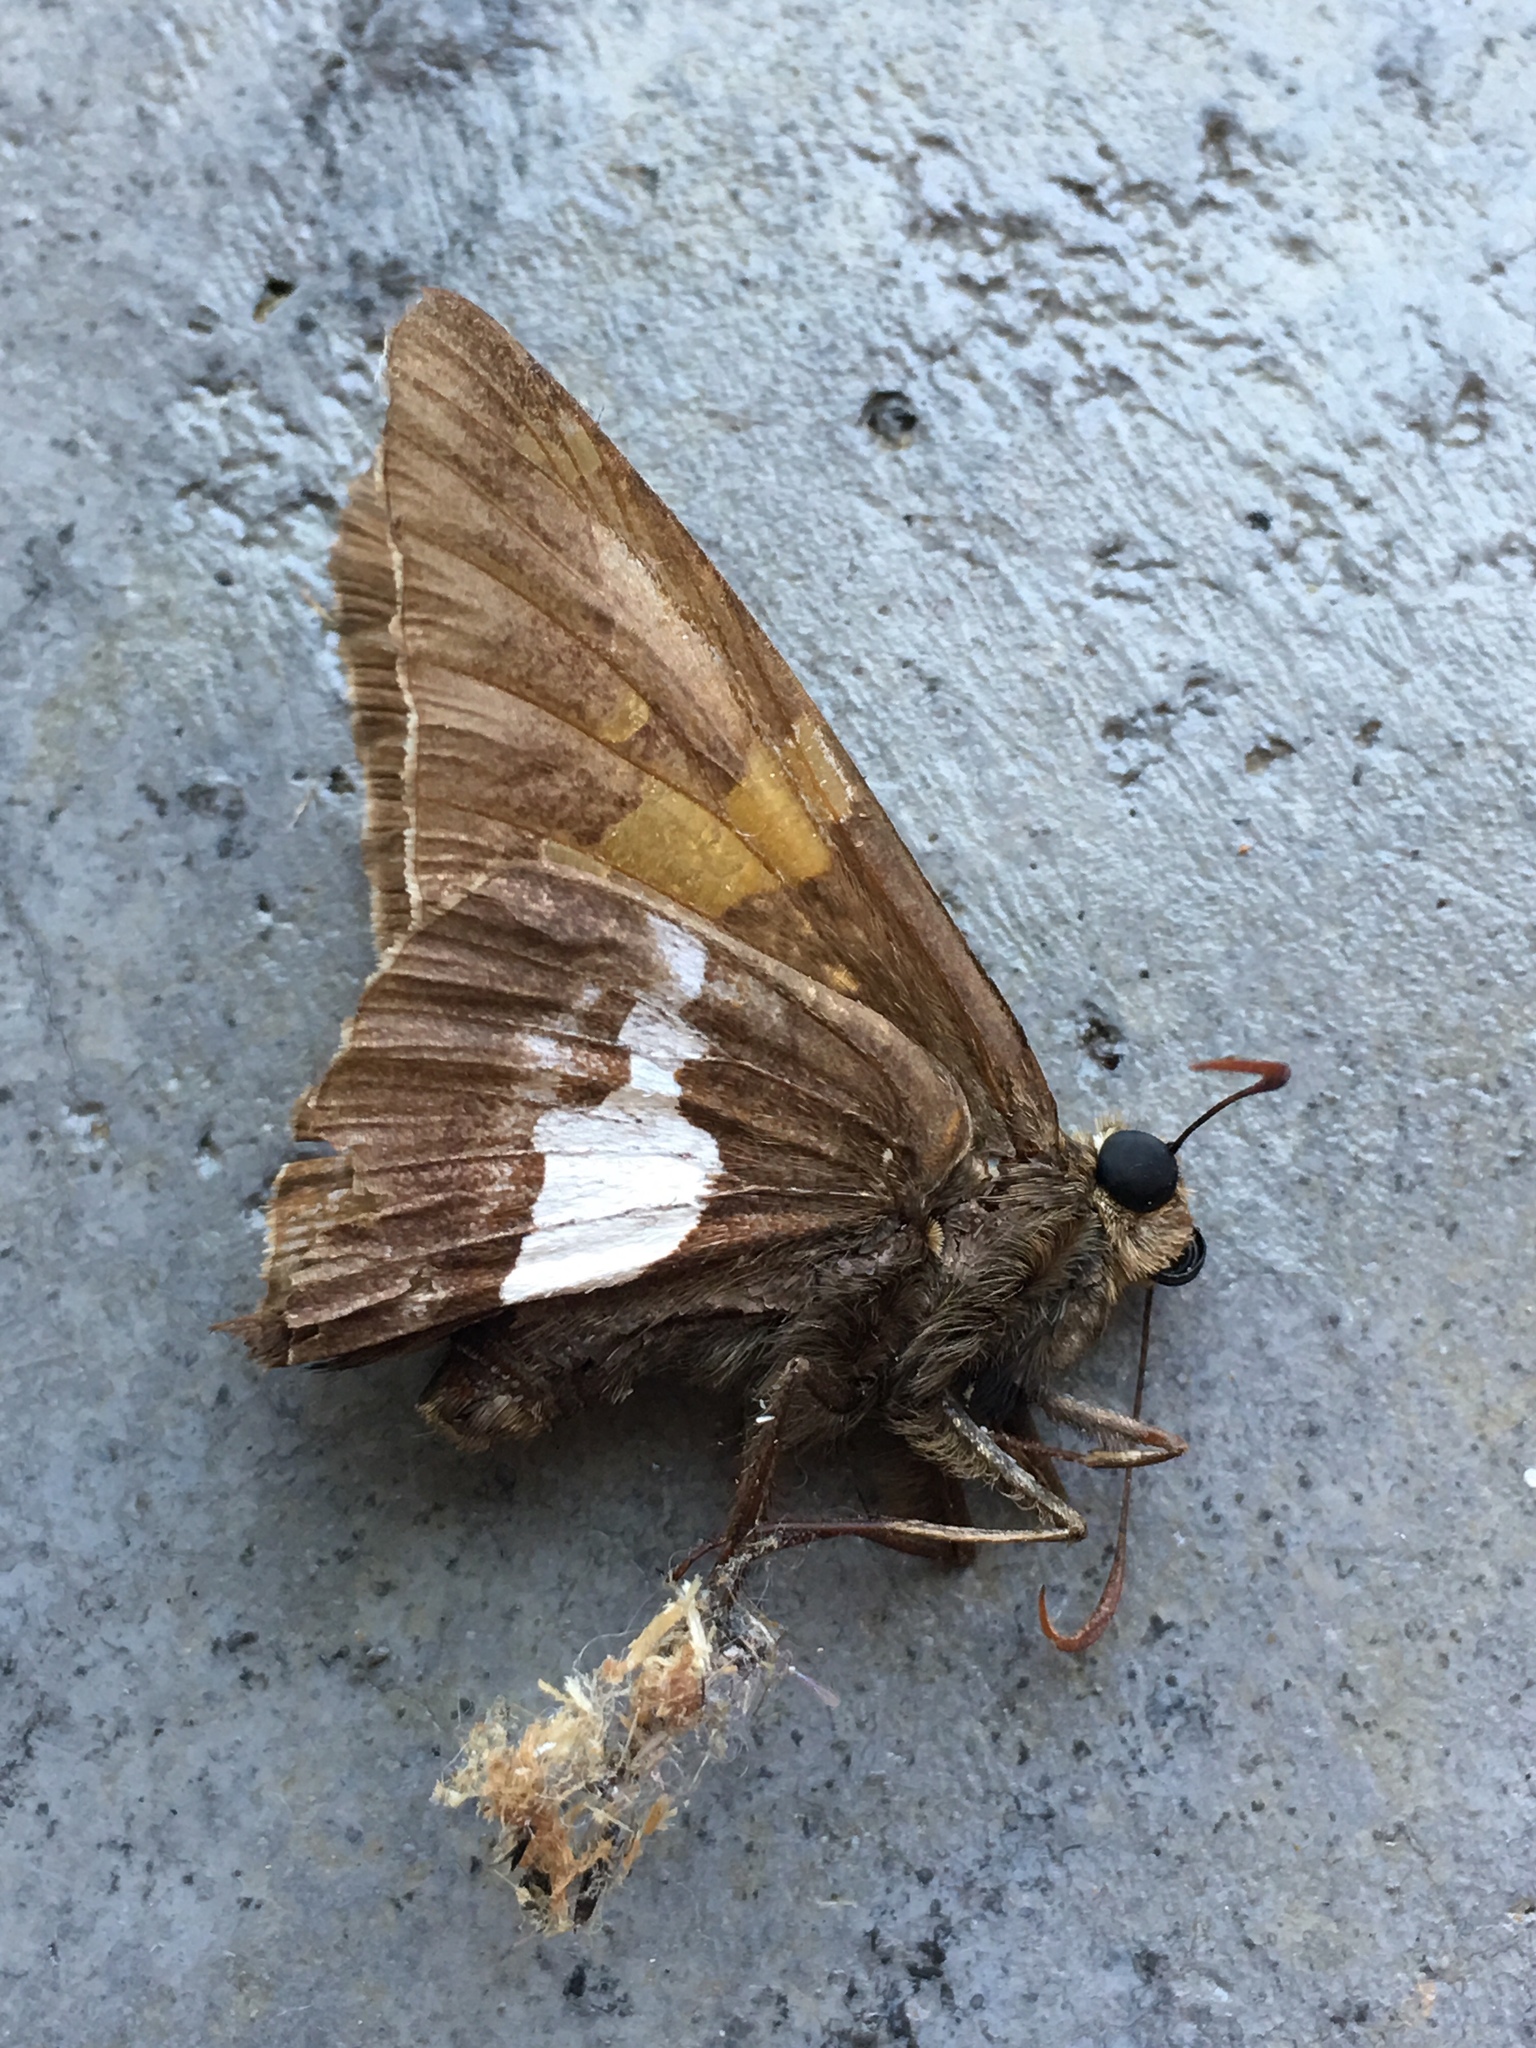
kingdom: Animalia
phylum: Arthropoda
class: Insecta
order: Lepidoptera
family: Hesperiidae
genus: Epargyreus
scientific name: Epargyreus clarus
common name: Silver-spotted skipper
